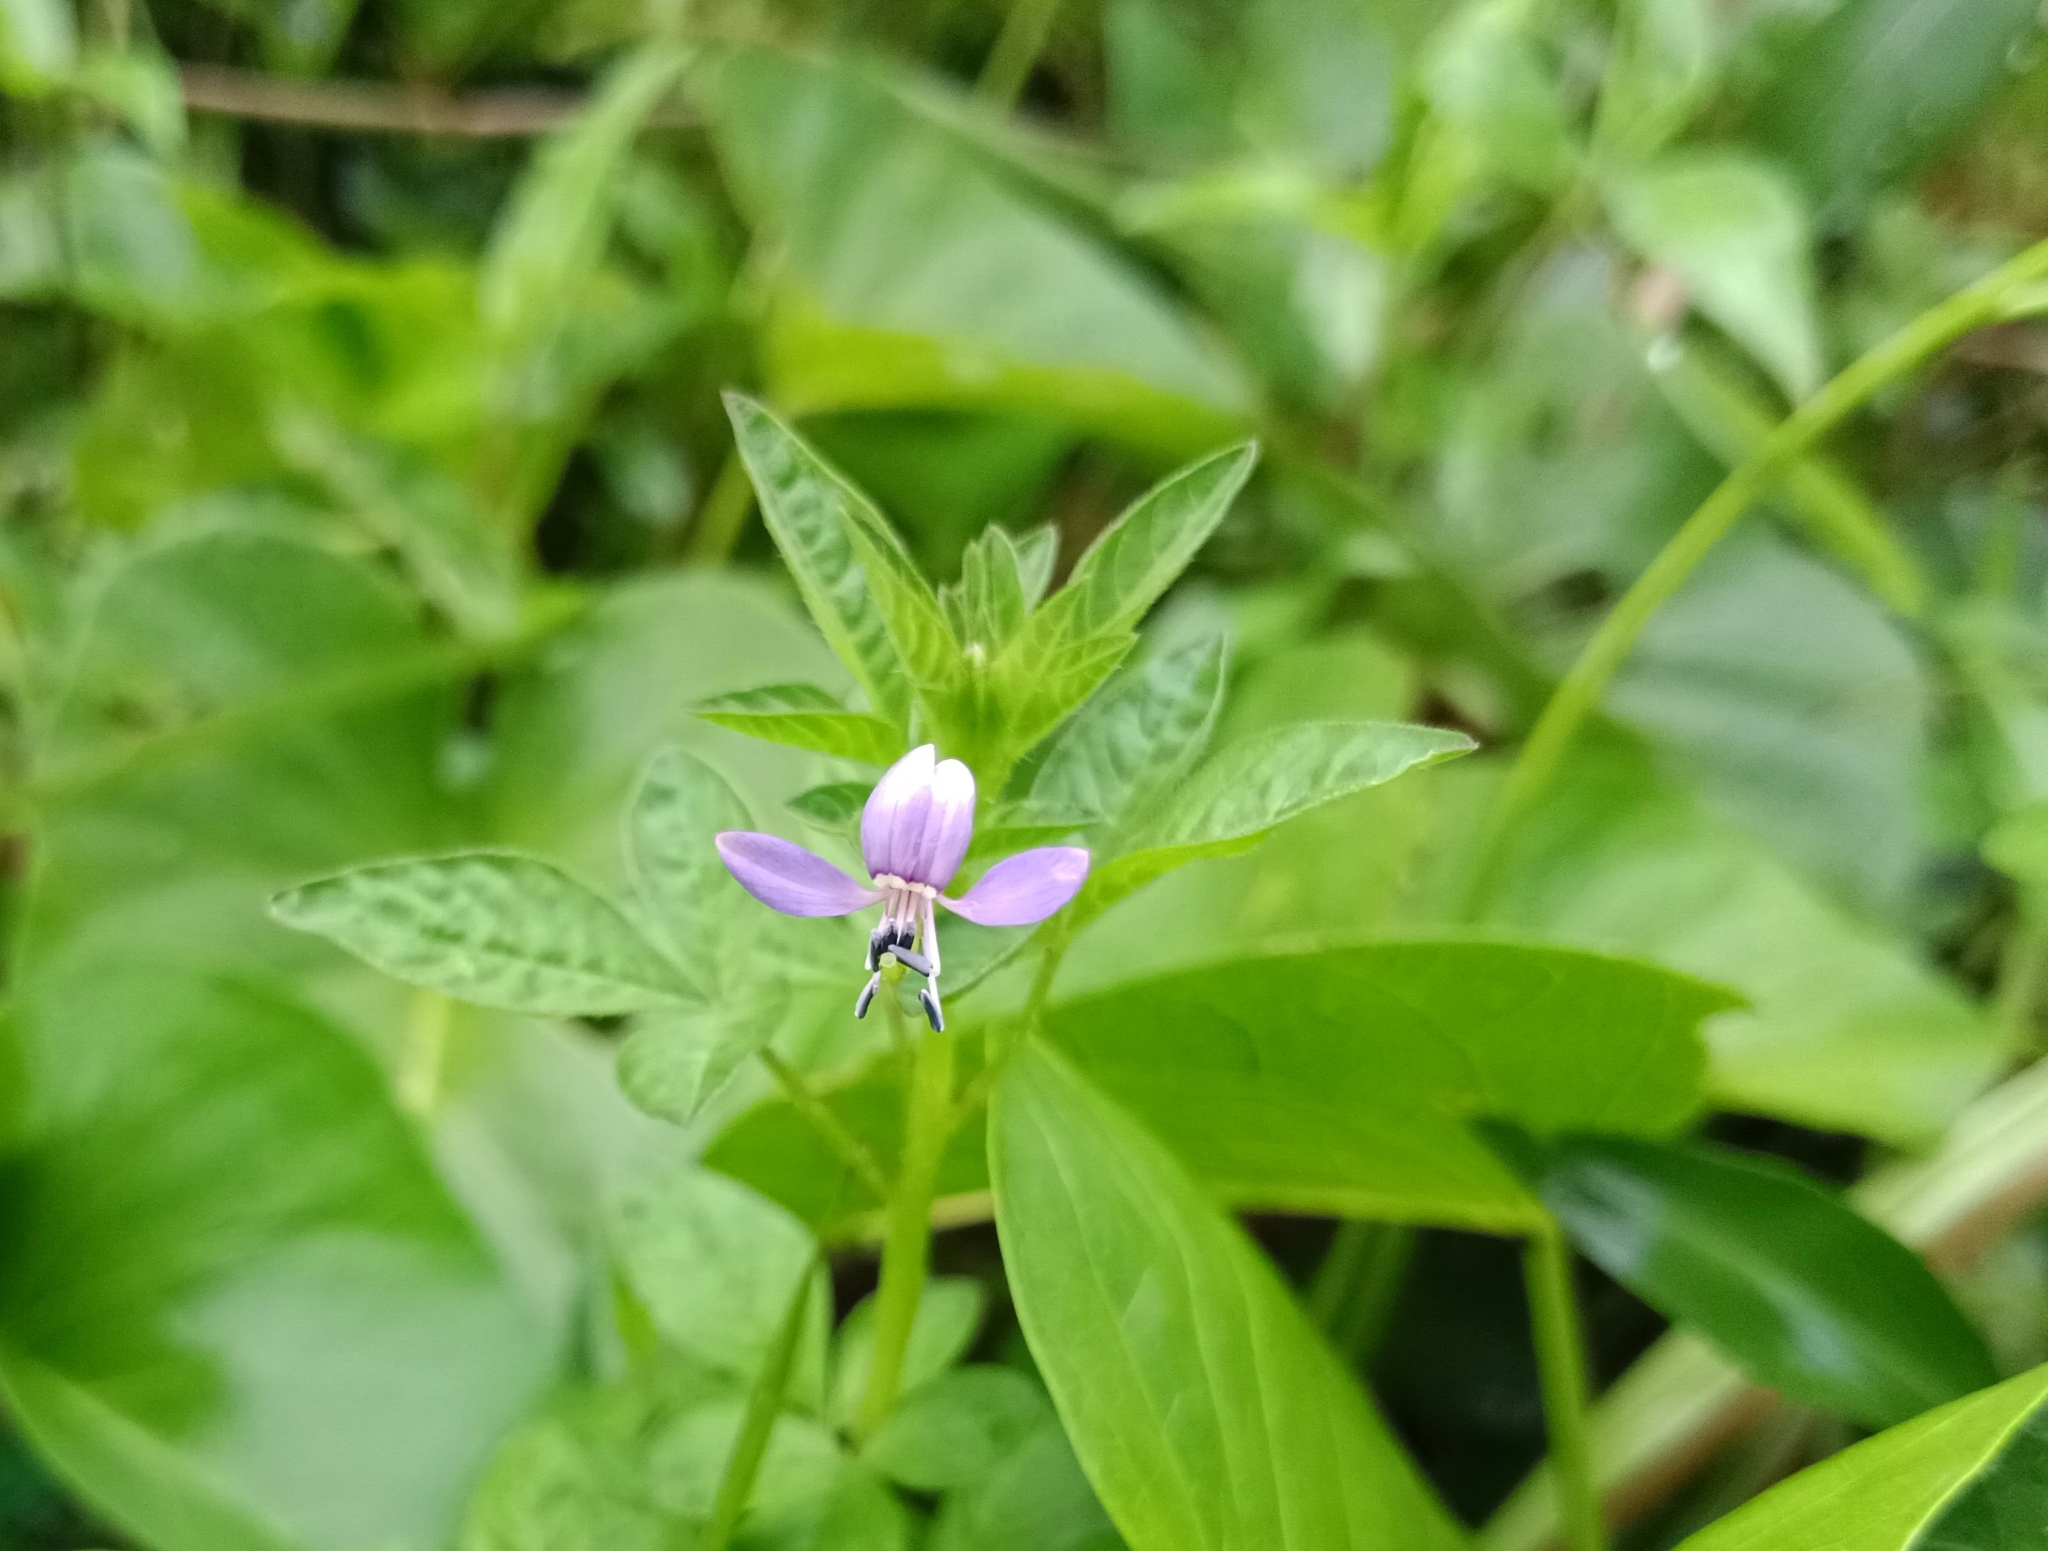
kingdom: Plantae
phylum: Tracheophyta
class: Magnoliopsida
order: Brassicales
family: Cleomaceae
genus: Sieruela
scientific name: Sieruela rutidosperma
